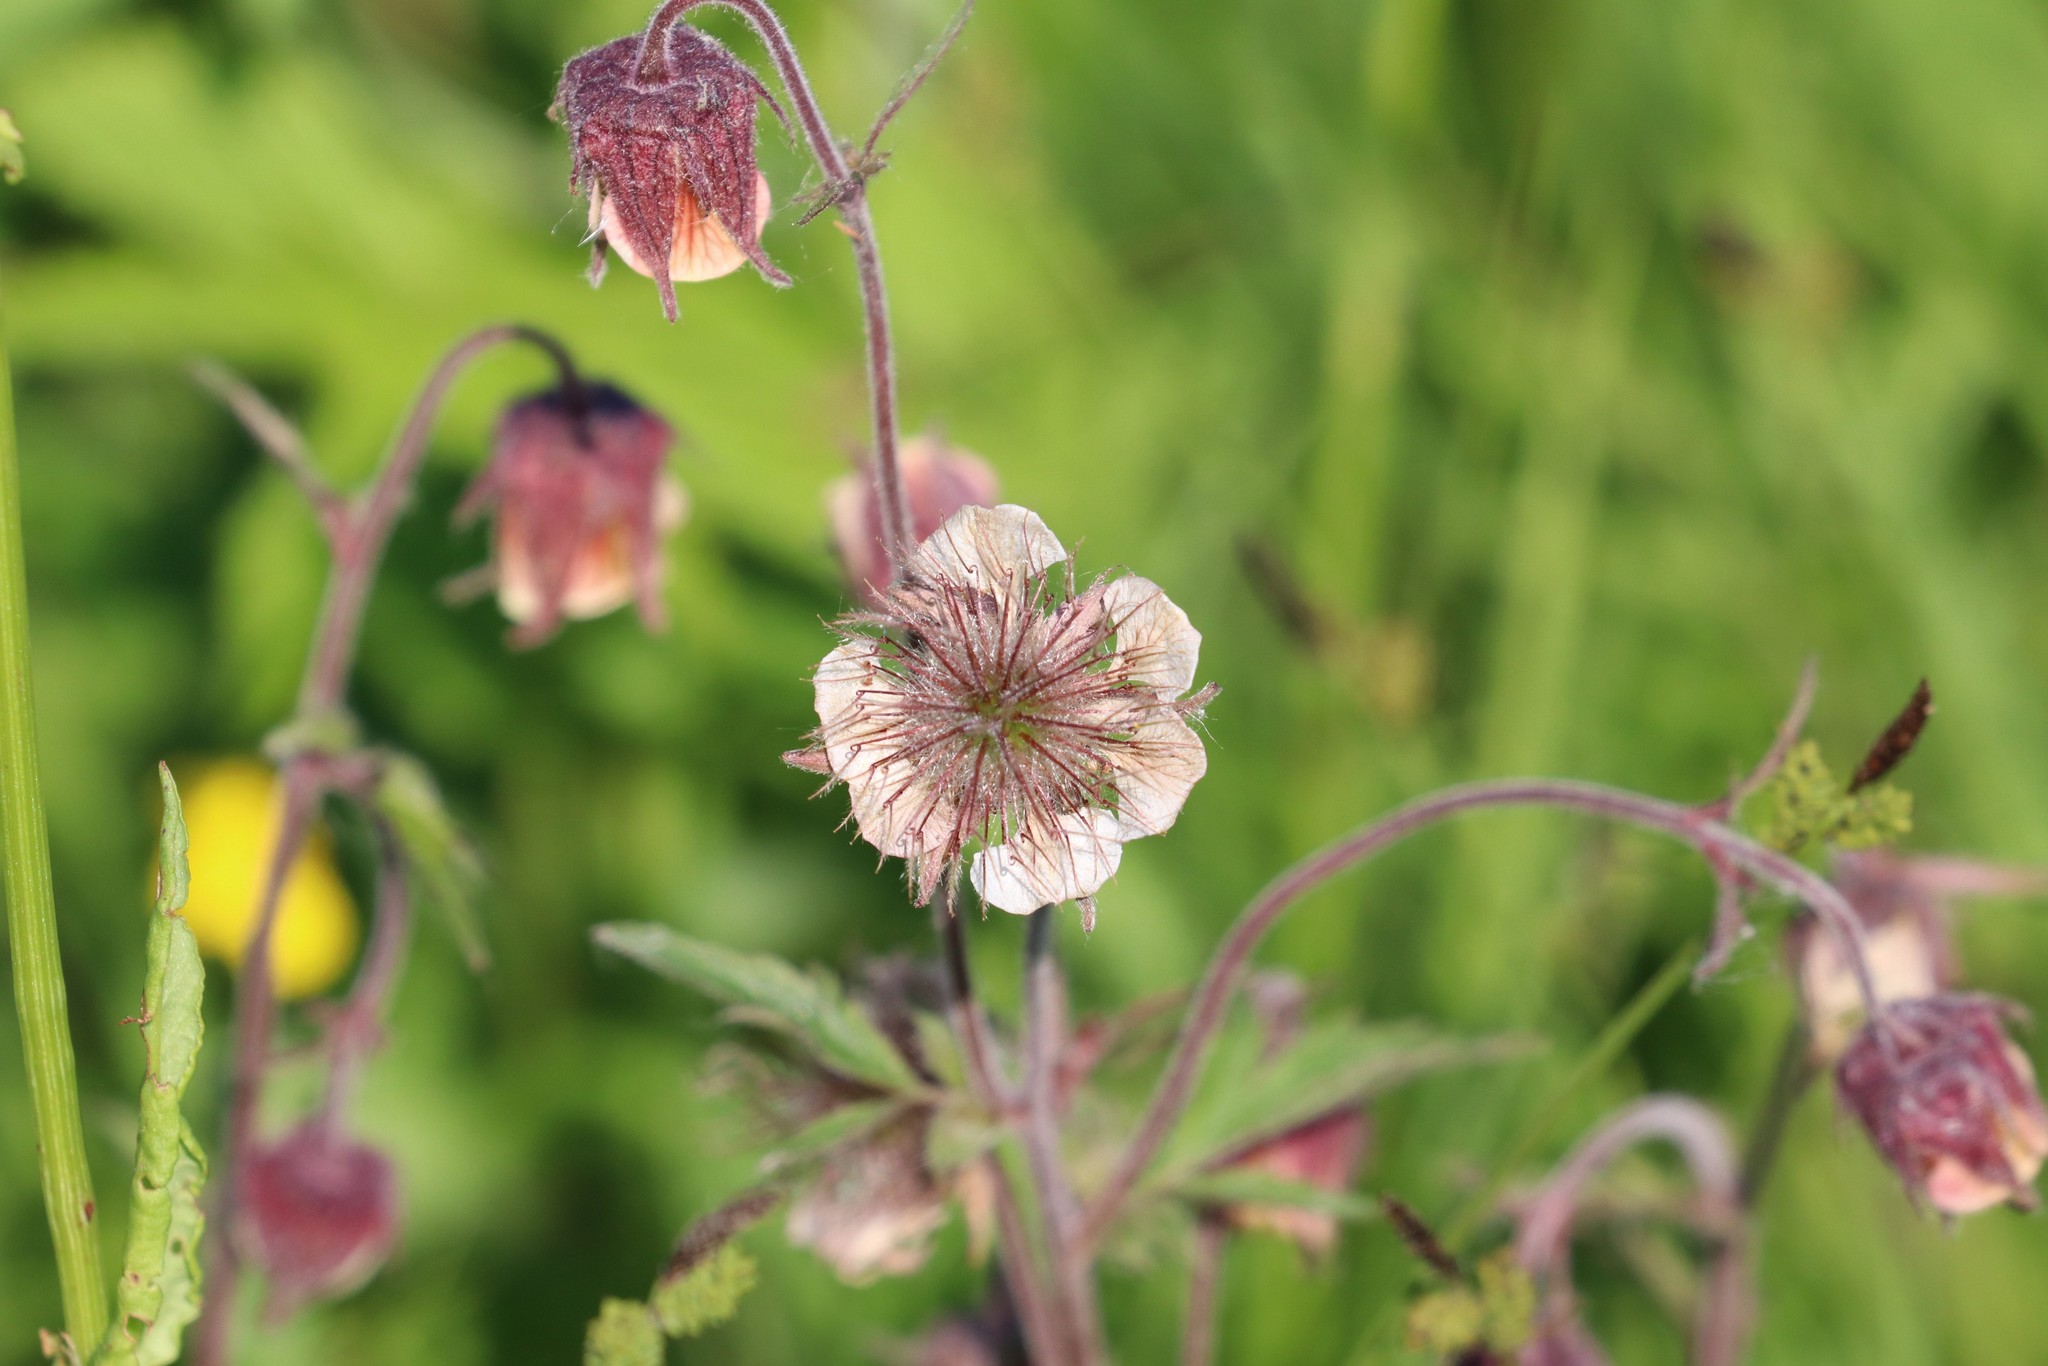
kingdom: Plantae
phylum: Tracheophyta
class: Magnoliopsida
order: Rosales
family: Rosaceae
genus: Geum
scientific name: Geum rivale
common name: Water avens
